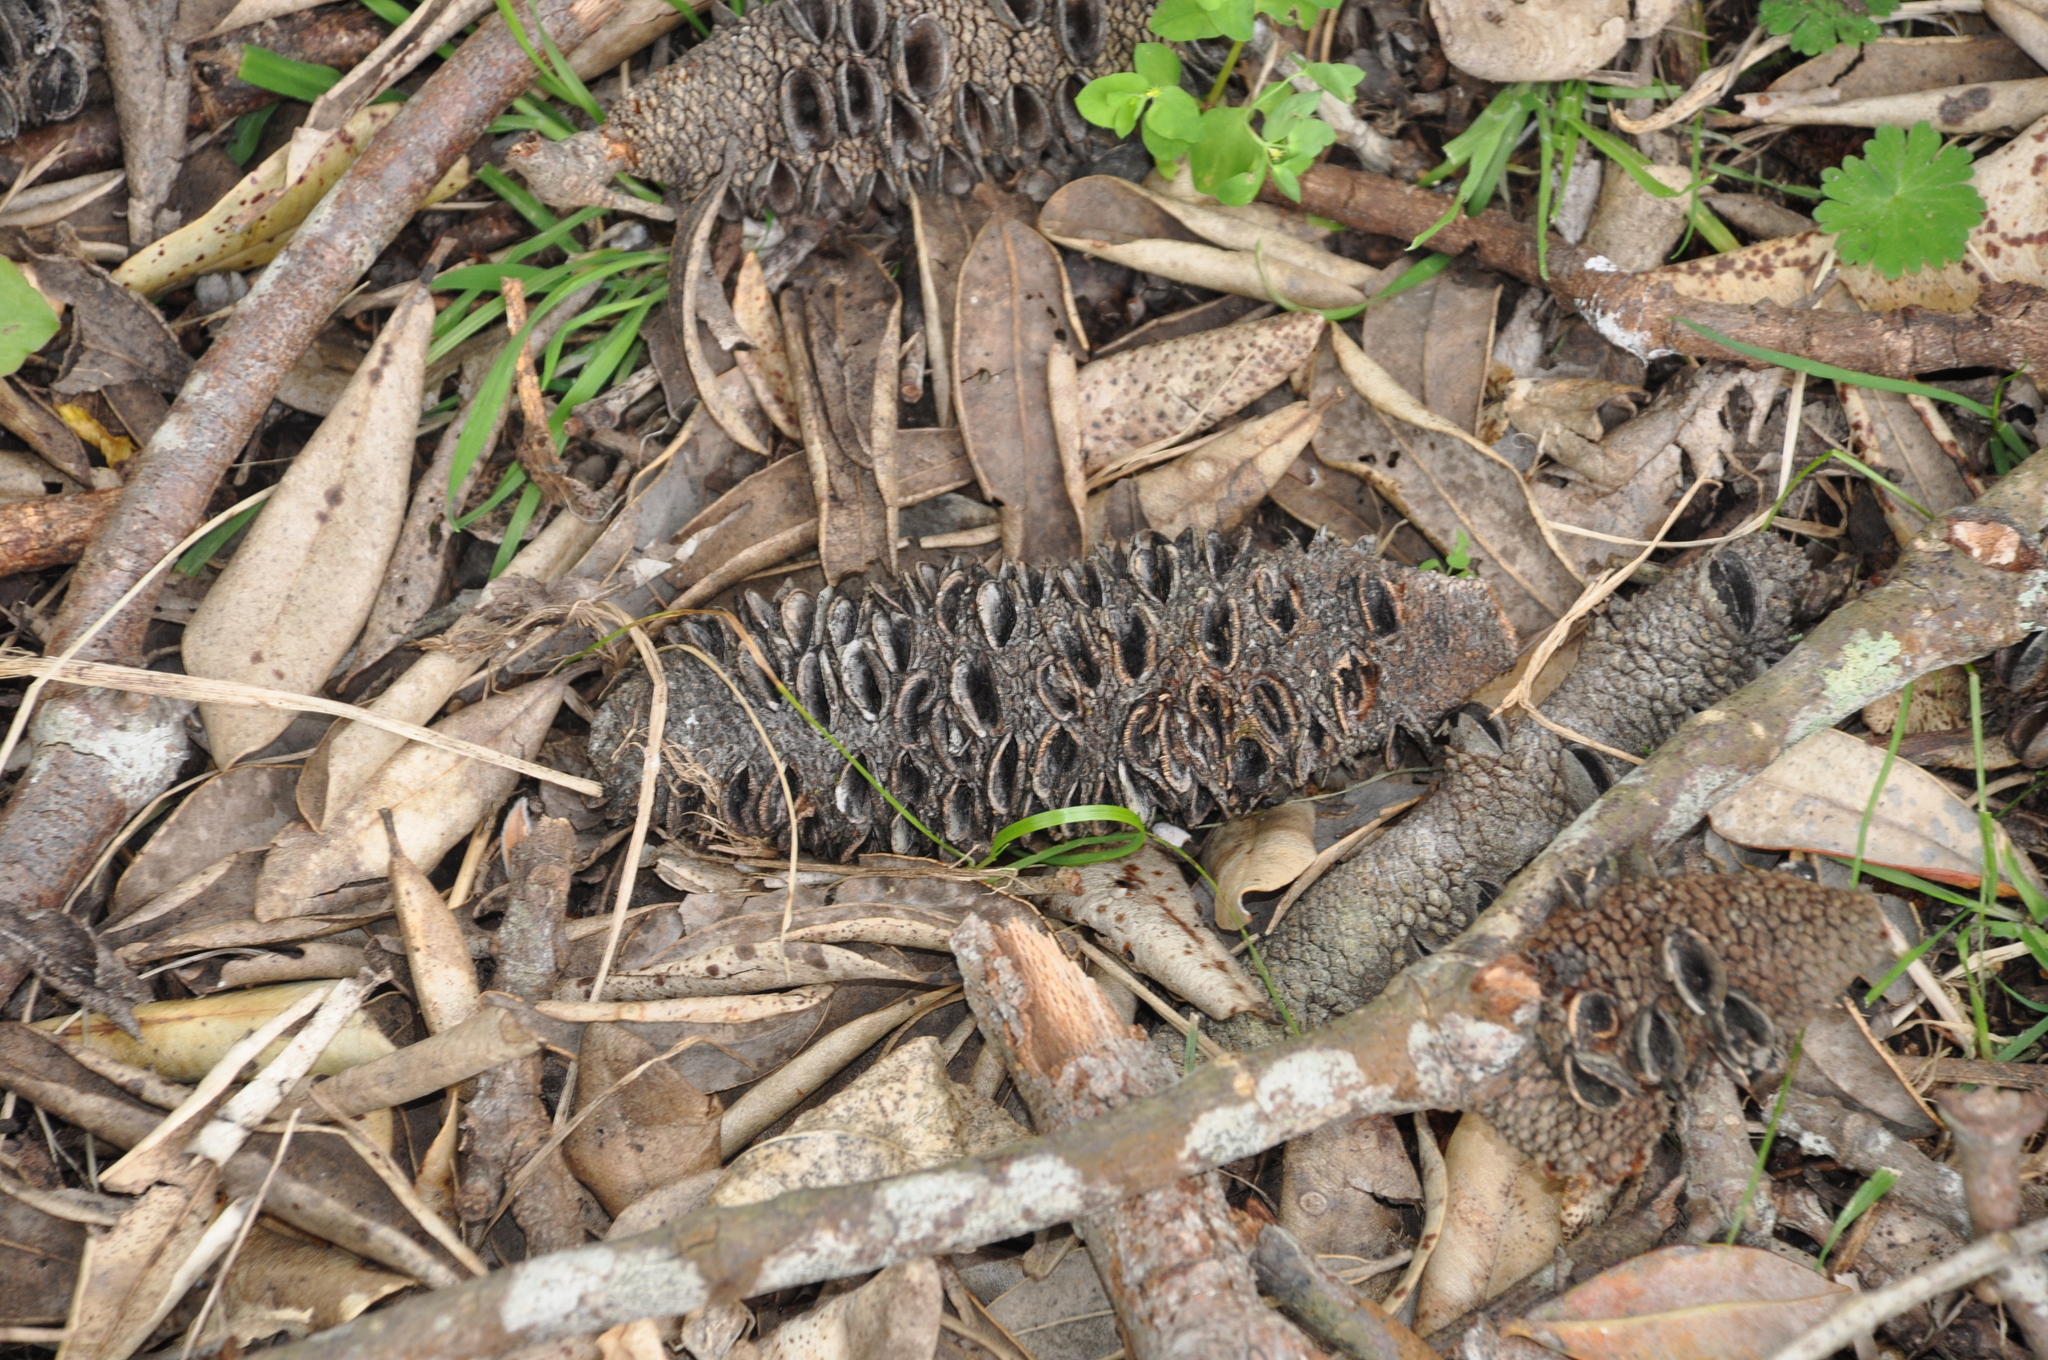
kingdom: Plantae
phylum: Tracheophyta
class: Magnoliopsida
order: Proteales
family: Proteaceae
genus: Banksia
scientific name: Banksia integrifolia
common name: White-honeysuckle
